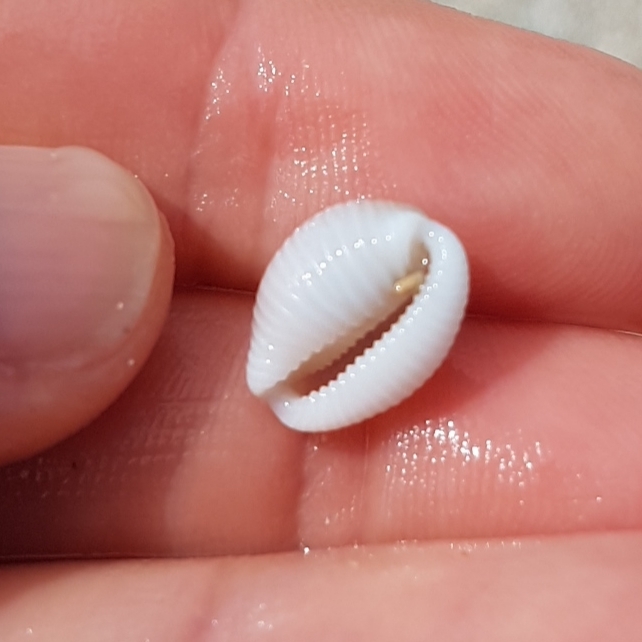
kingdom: Animalia
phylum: Mollusca
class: Gastropoda
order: Littorinimorpha
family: Triviidae
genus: Trivia
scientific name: Trivia monacha
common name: Spotted cowrie
